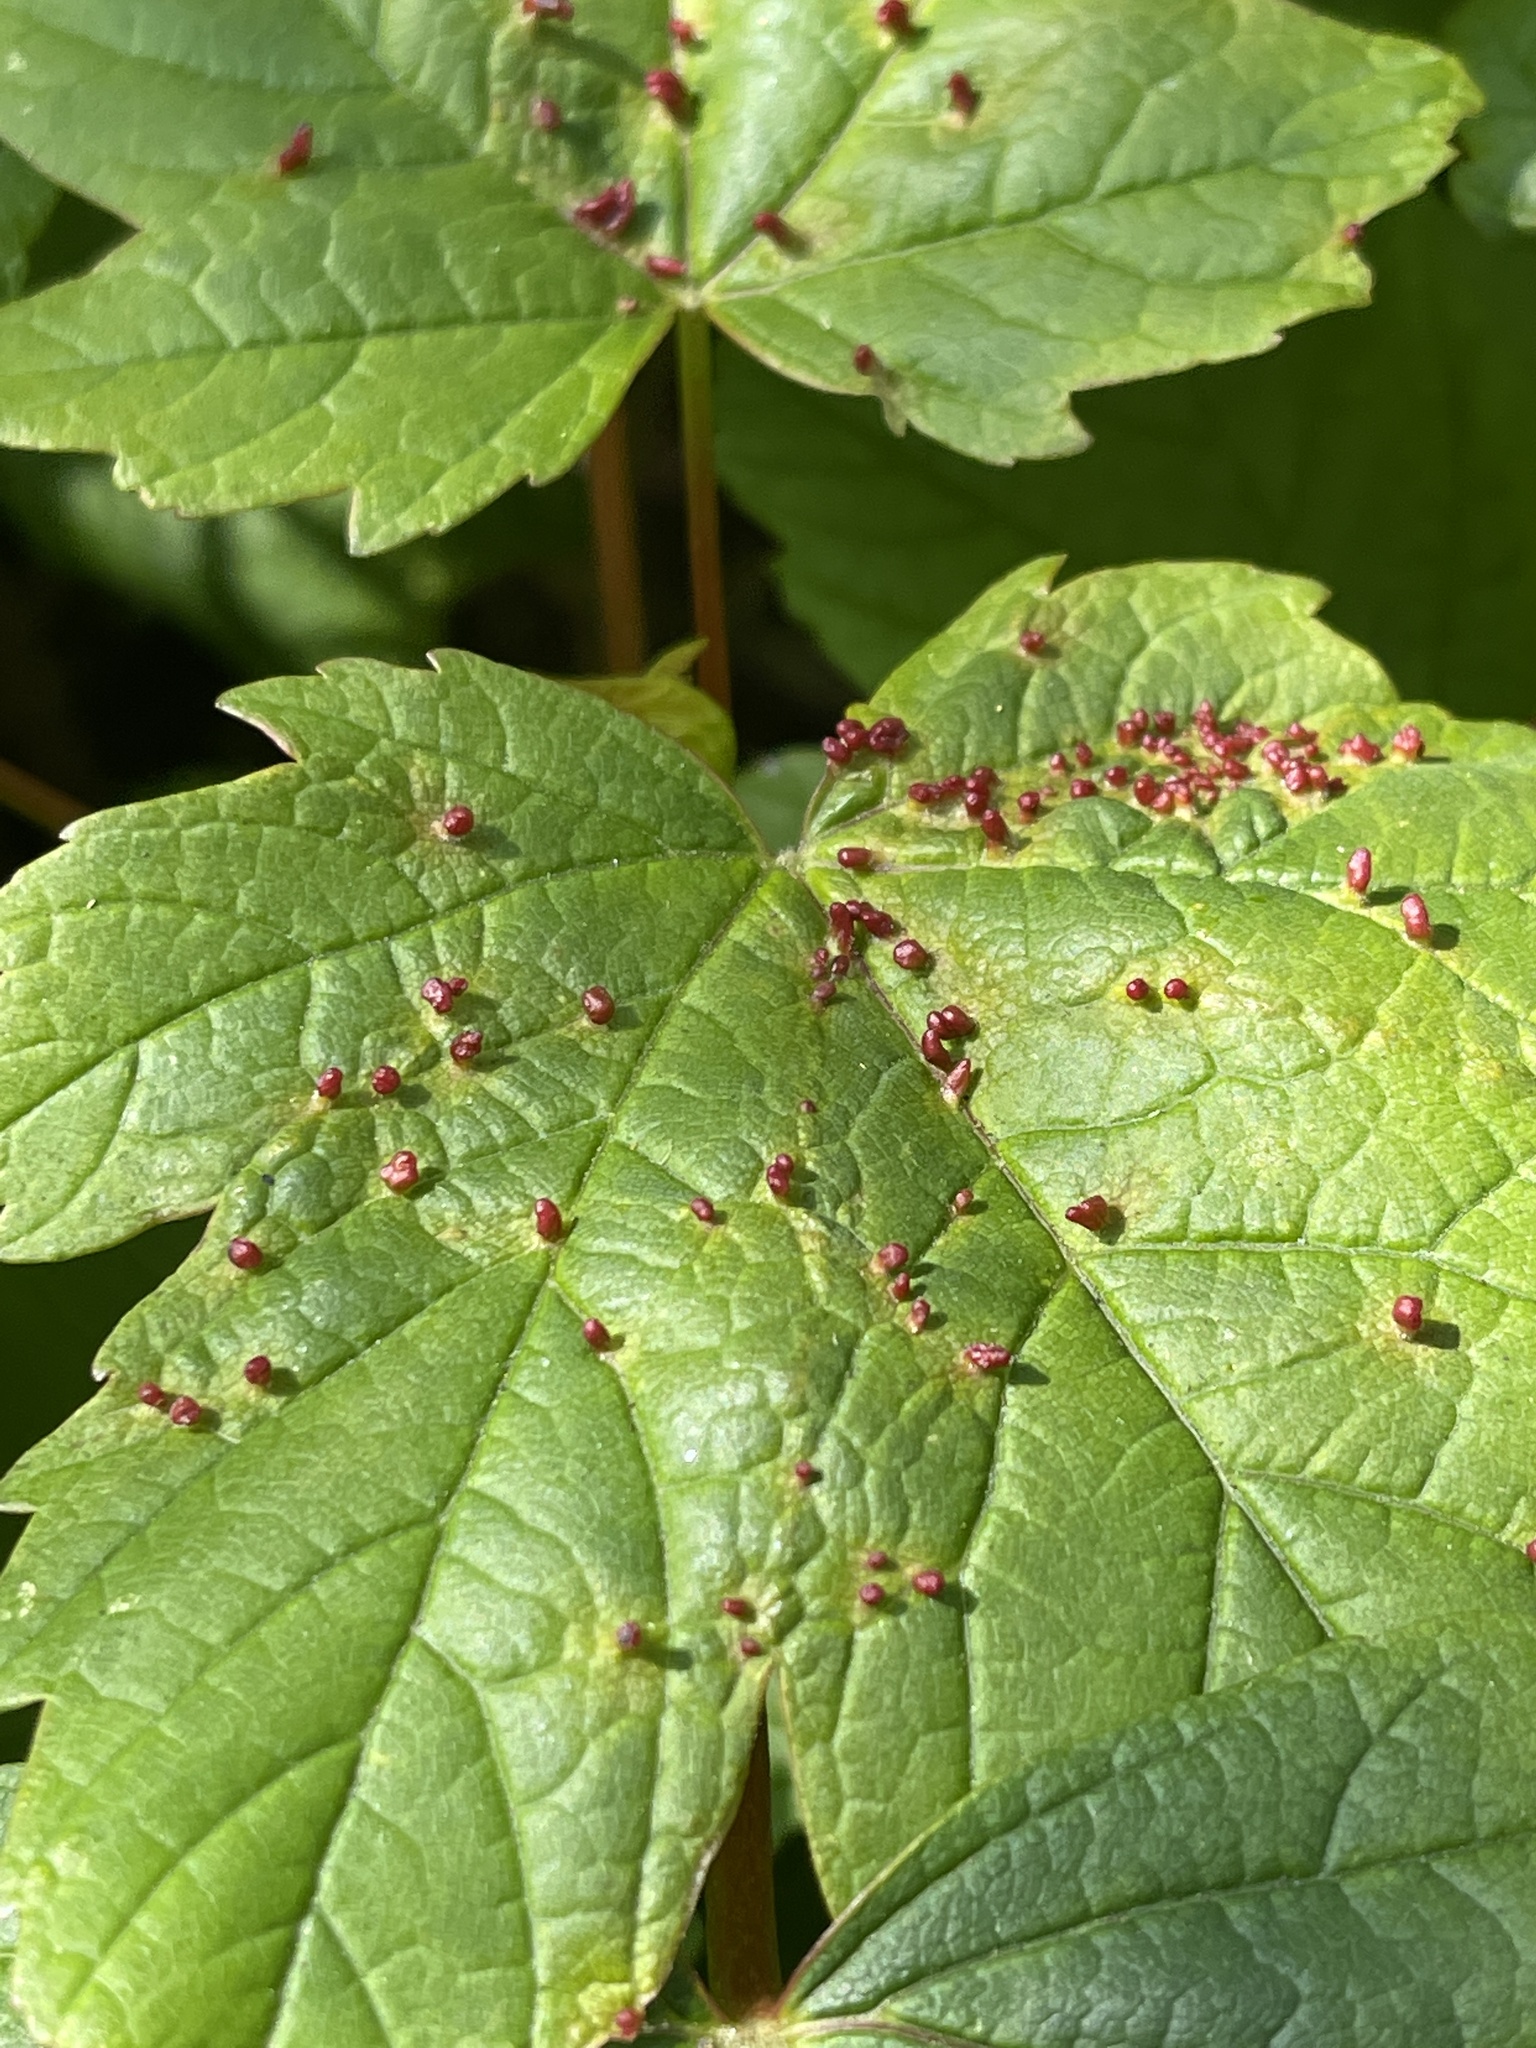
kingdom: Animalia
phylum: Arthropoda
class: Arachnida
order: Trombidiformes
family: Eriophyidae
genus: Aceria
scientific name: Aceria cephaloneus
